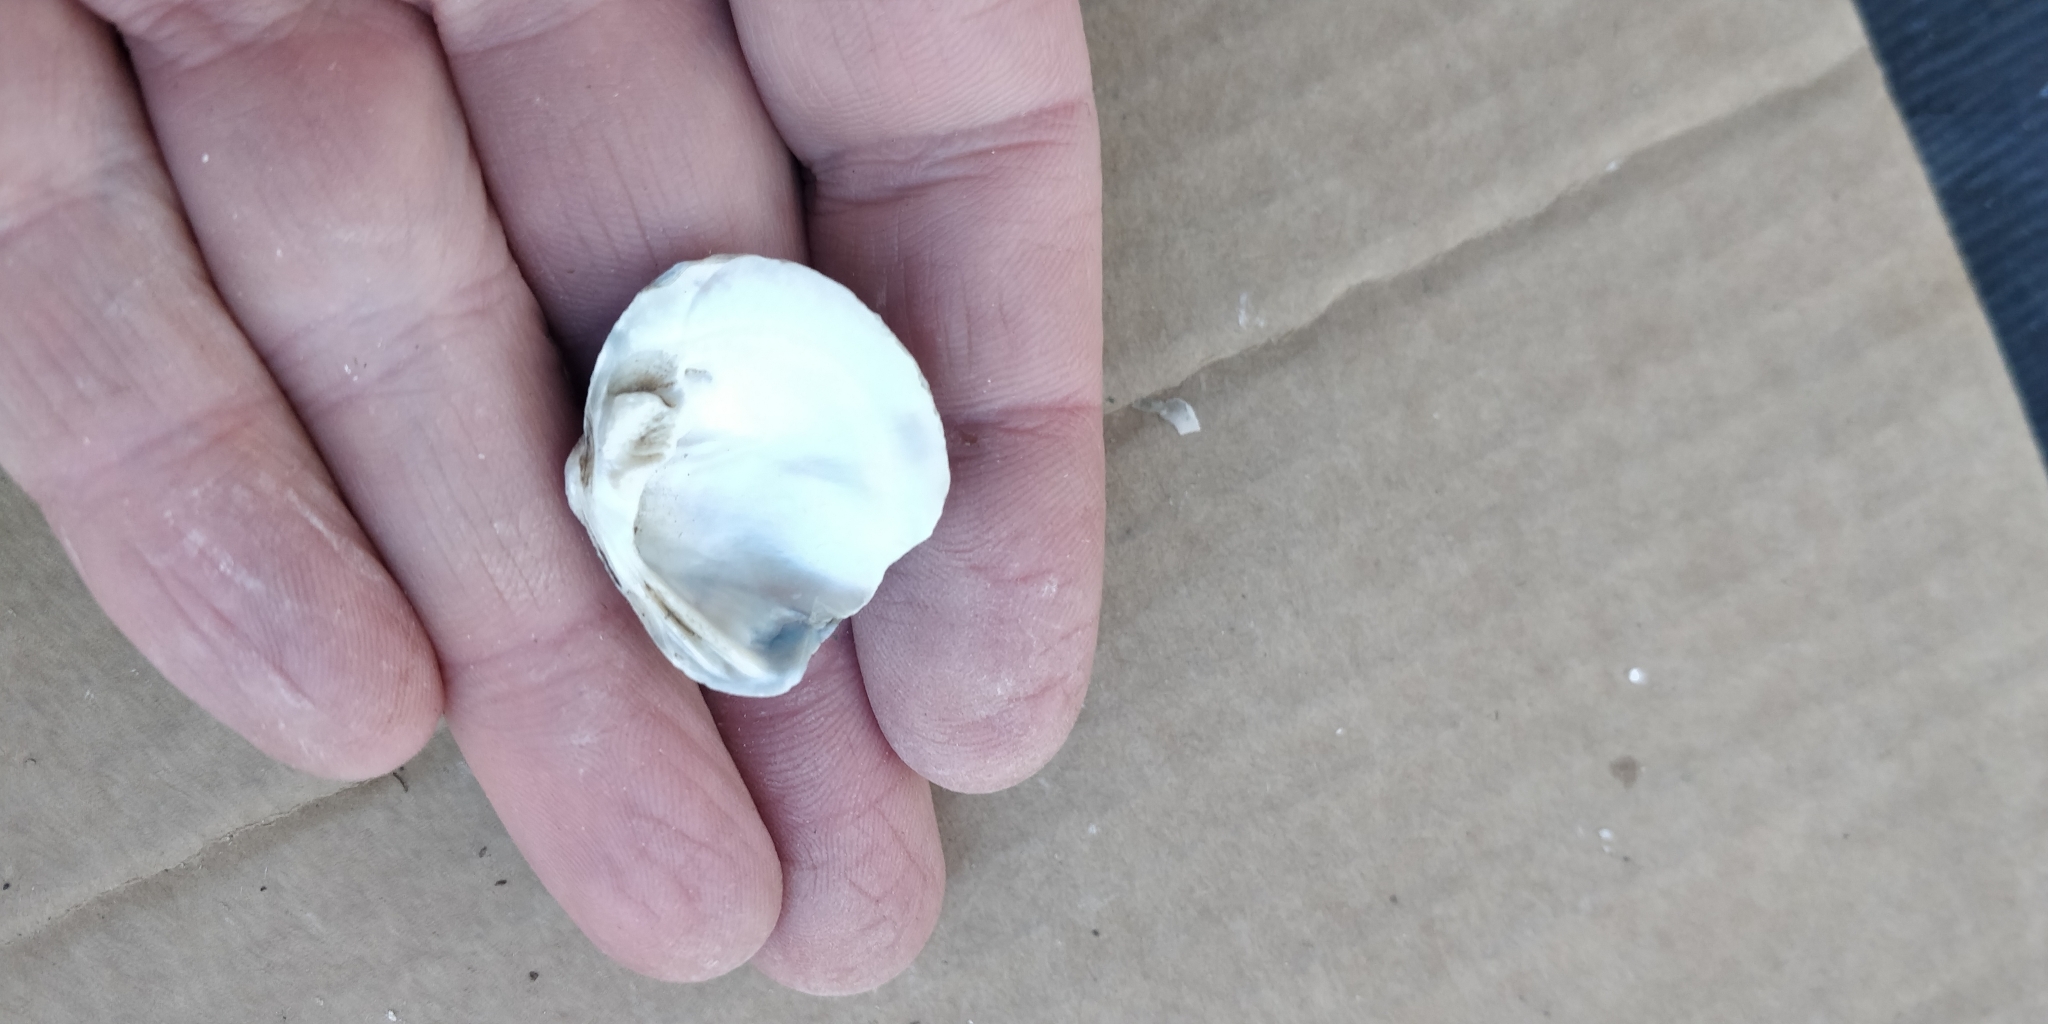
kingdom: Animalia
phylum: Mollusca
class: Bivalvia
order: Unionida
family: Unionidae
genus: Quadrula
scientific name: Quadrula quadrula
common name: Mapleleaf
